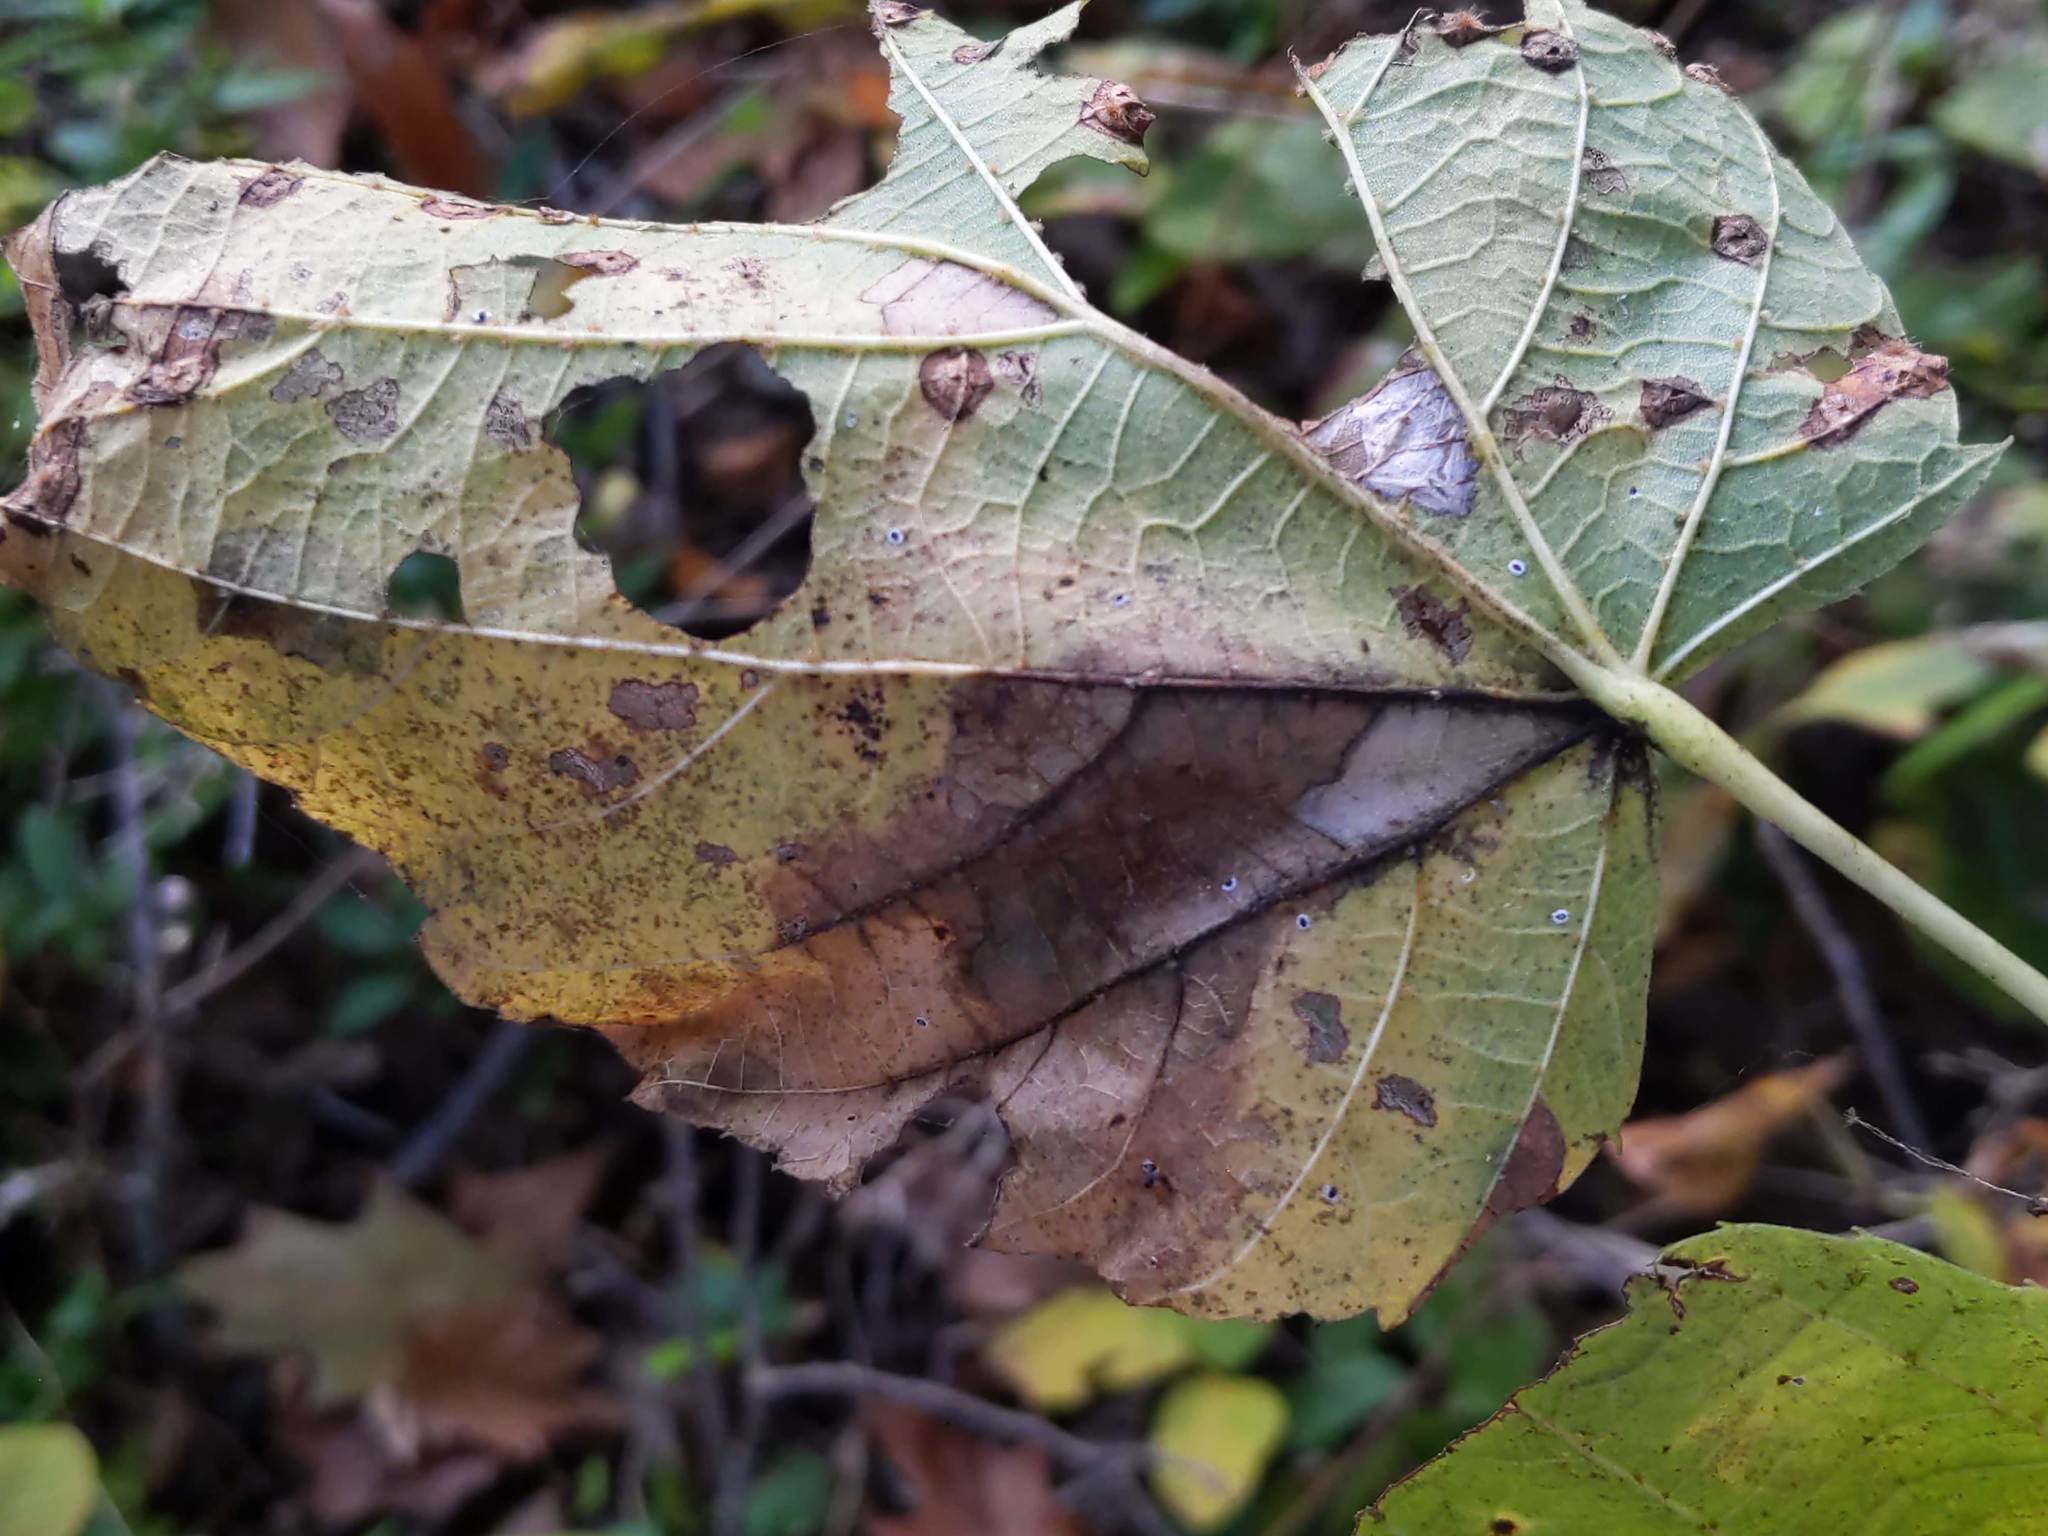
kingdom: Animalia
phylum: Arthropoda
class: Insecta
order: Lepidoptera
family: Gracillariidae
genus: Phyllonorycter
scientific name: Phyllonorycter lucetiella
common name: Basswood miner moth
